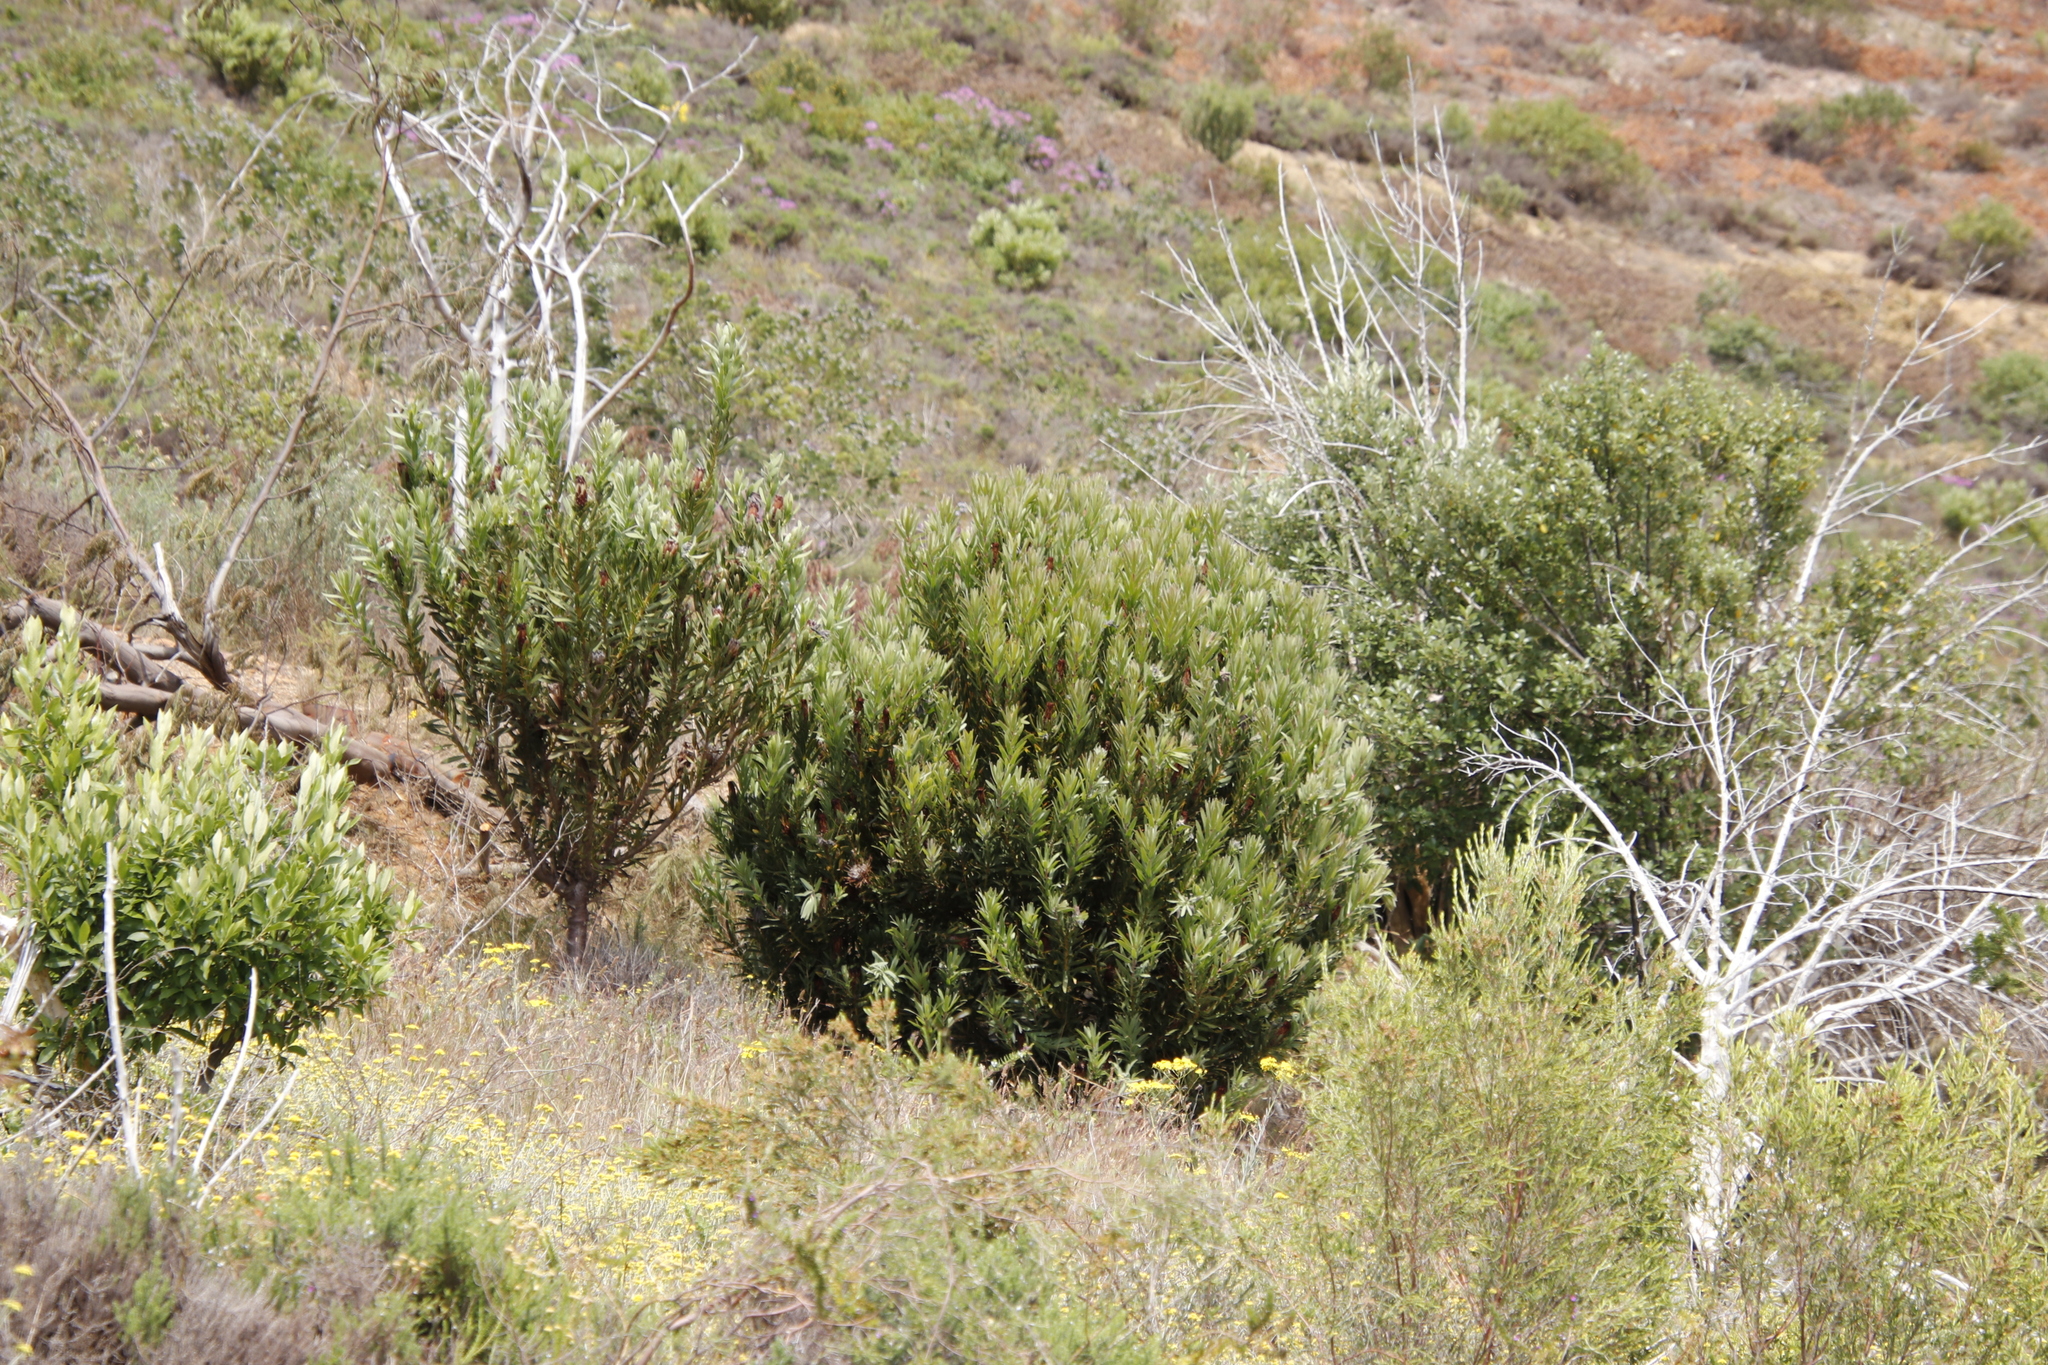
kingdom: Plantae
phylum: Tracheophyta
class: Magnoliopsida
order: Proteales
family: Proteaceae
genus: Protea
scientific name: Protea lepidocarpodendron
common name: Black-bearded protea
